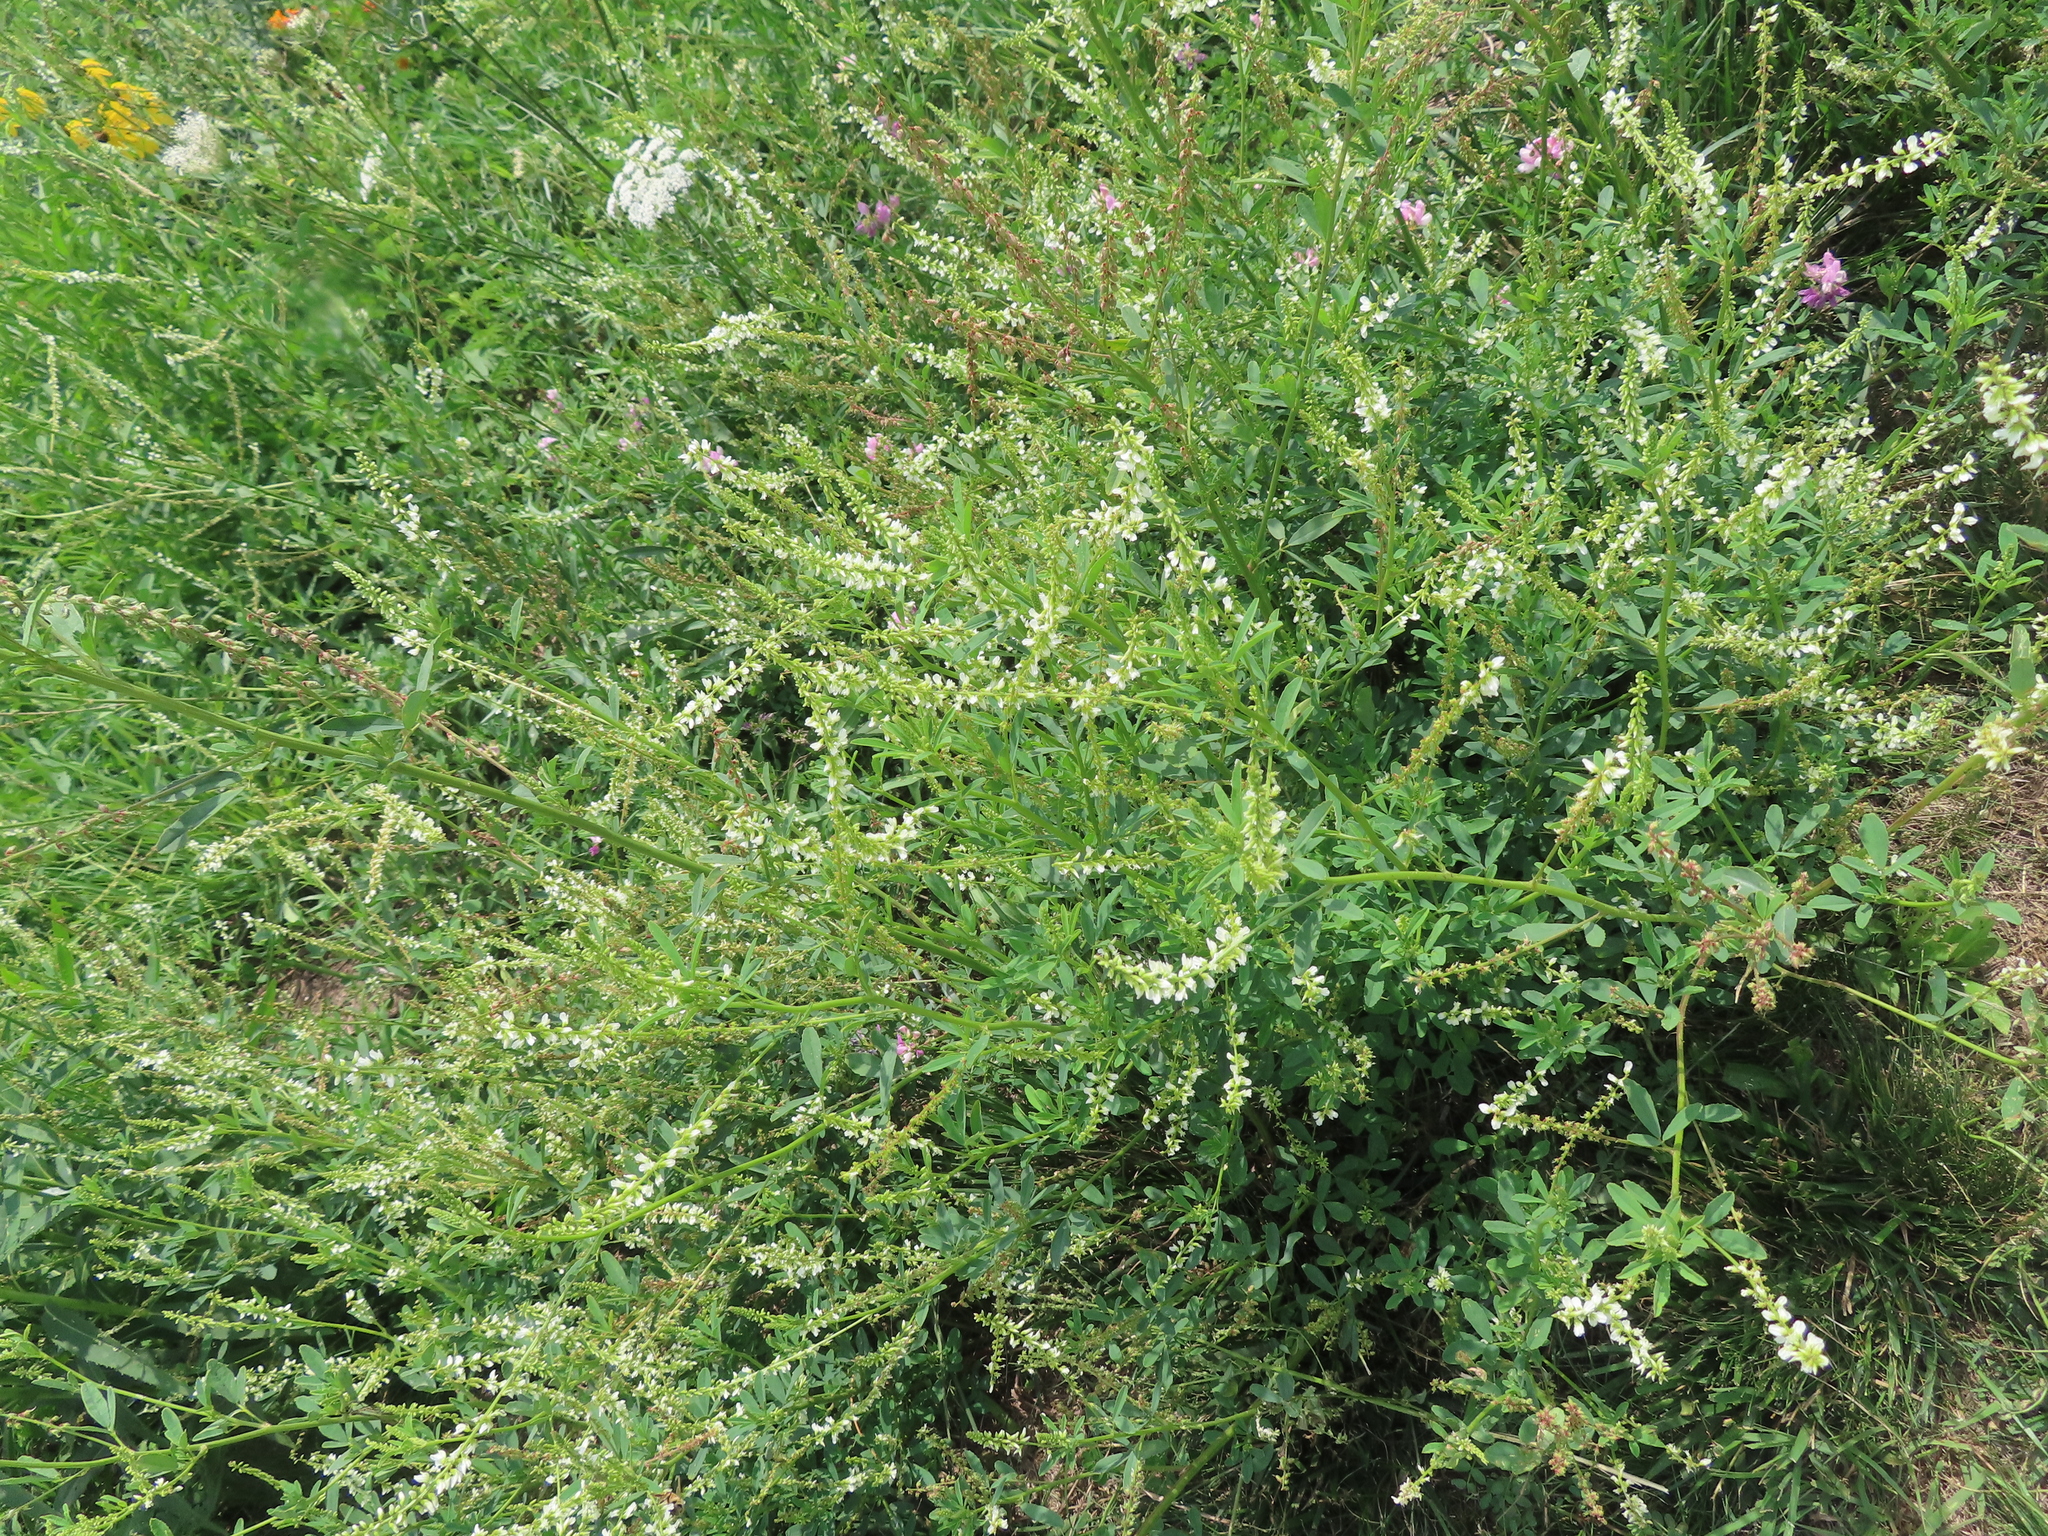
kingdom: Plantae
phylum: Tracheophyta
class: Magnoliopsida
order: Fabales
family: Fabaceae
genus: Melilotus
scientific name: Melilotus albus
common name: White melilot
